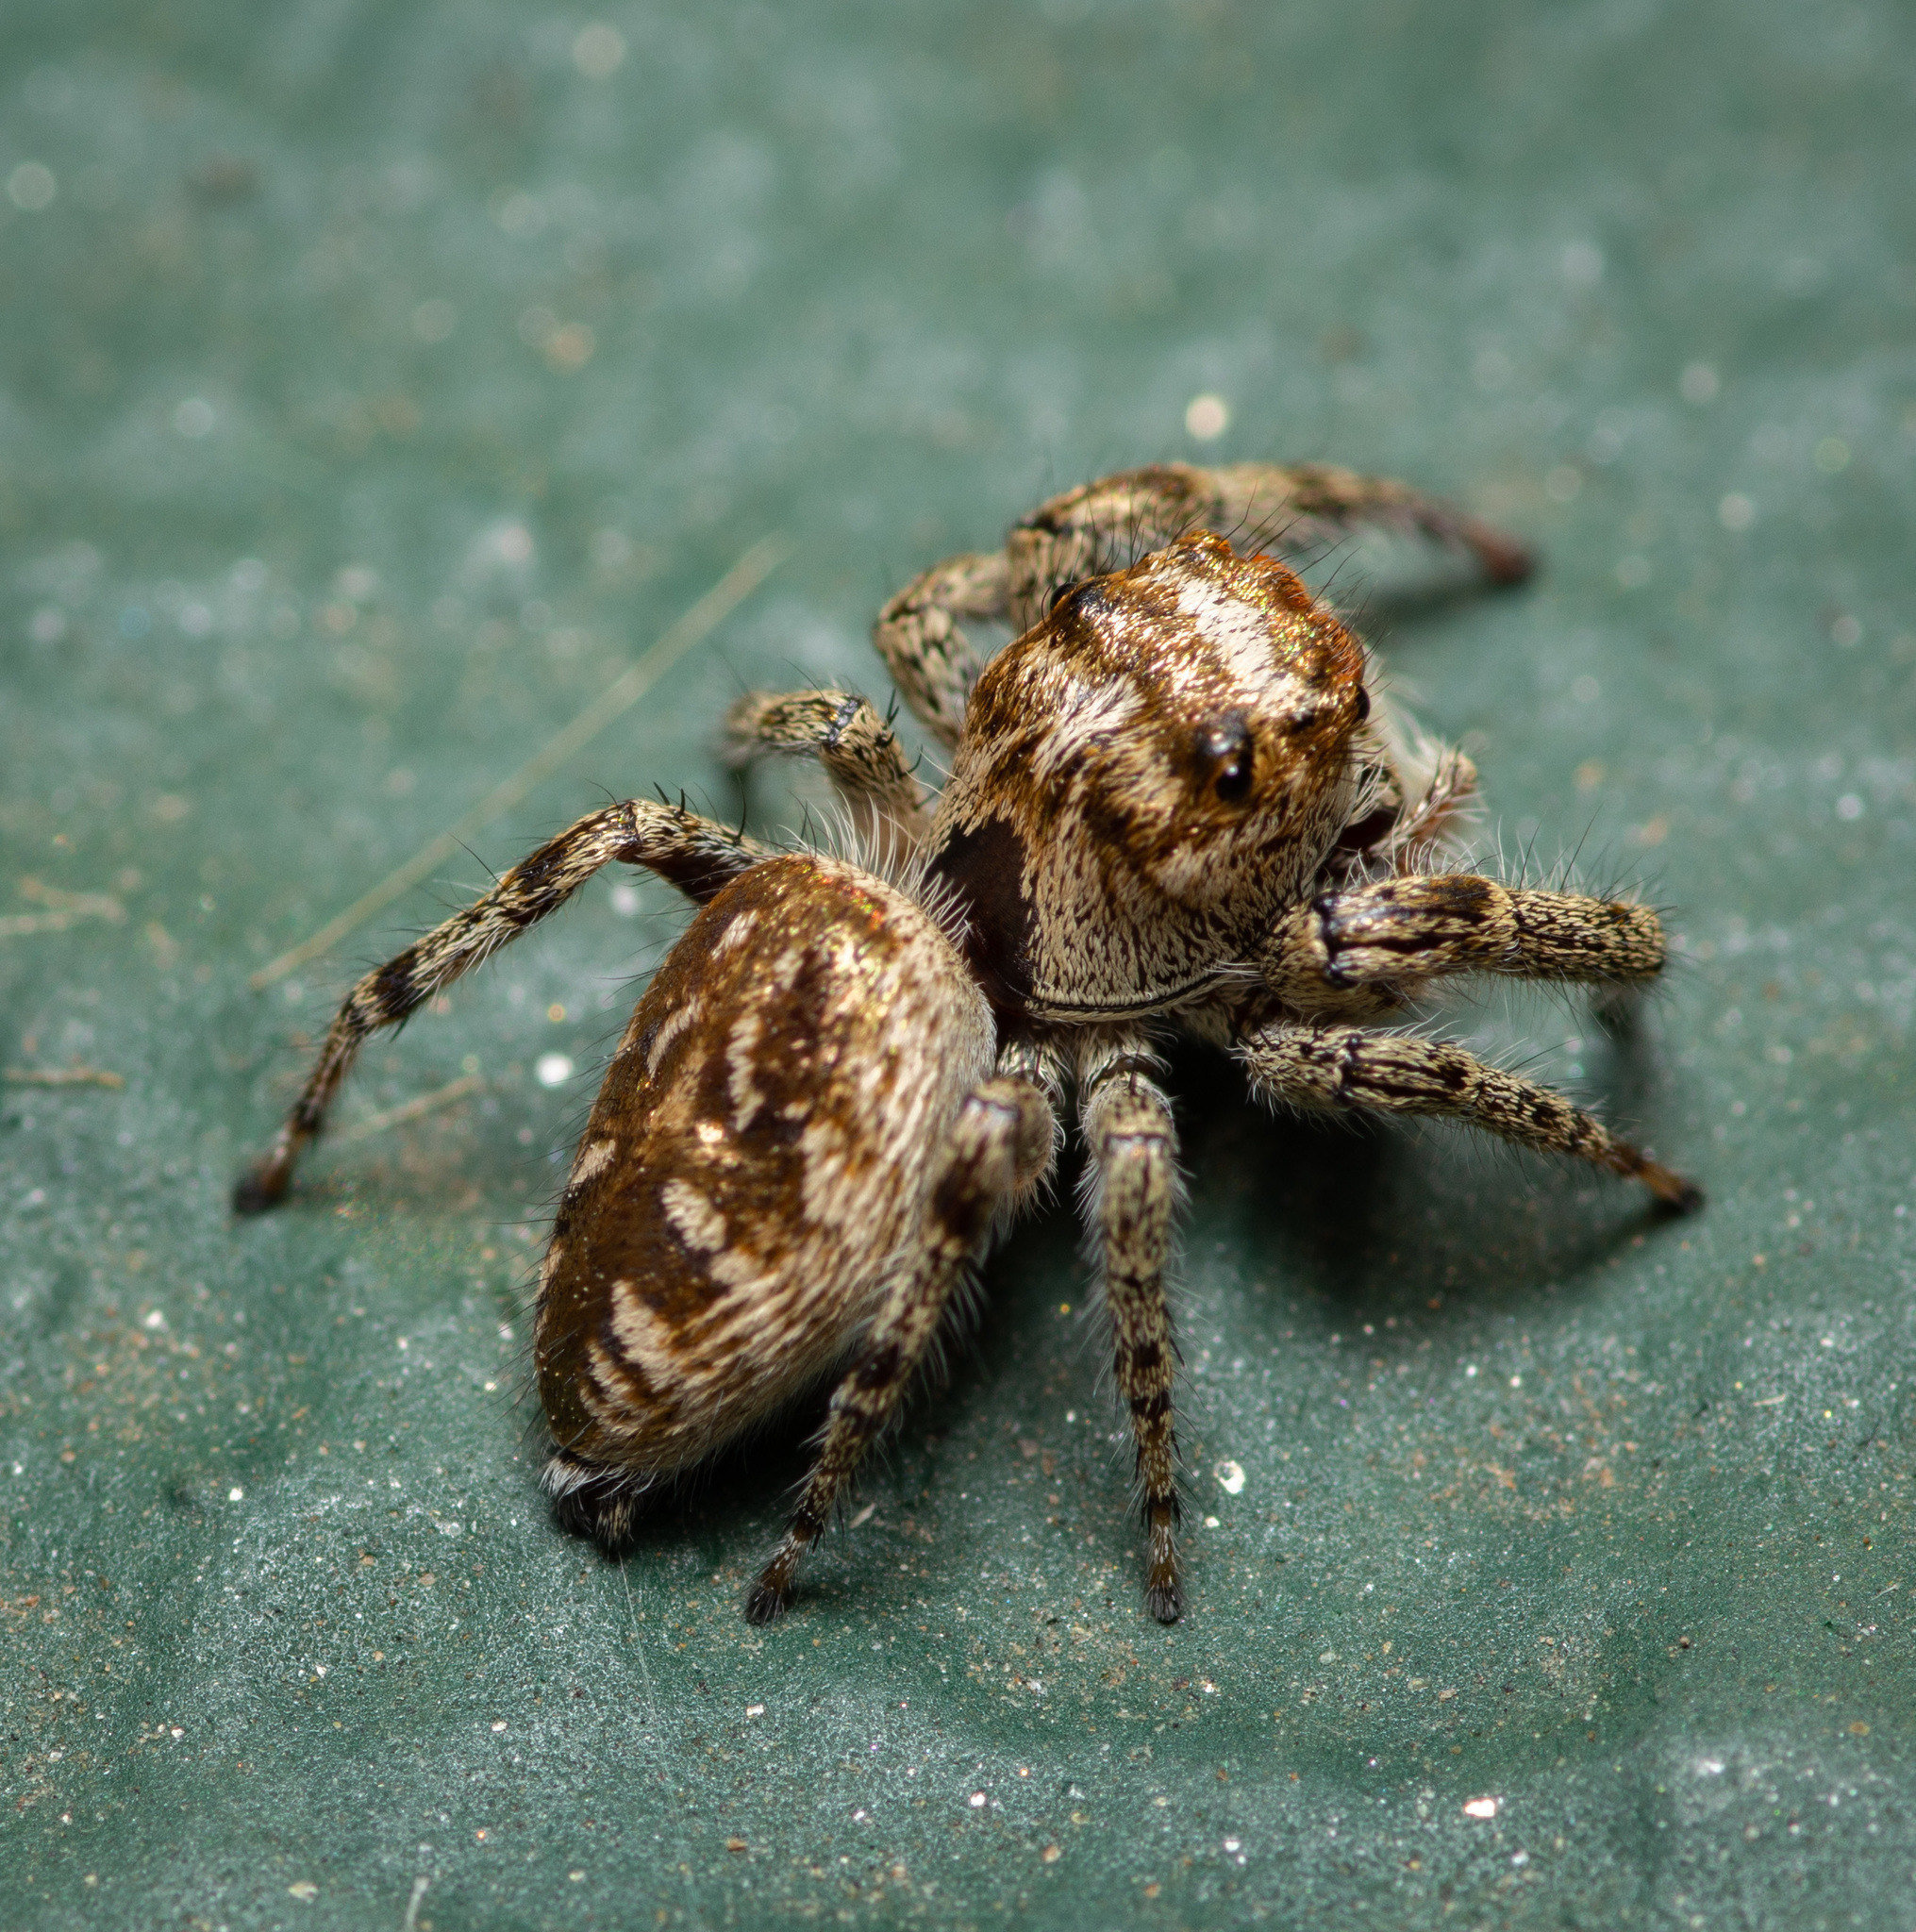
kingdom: Animalia
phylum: Arthropoda
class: Arachnida
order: Araneae
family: Salticidae
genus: Eris
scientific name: Eris militaris
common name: Bronze jumper
